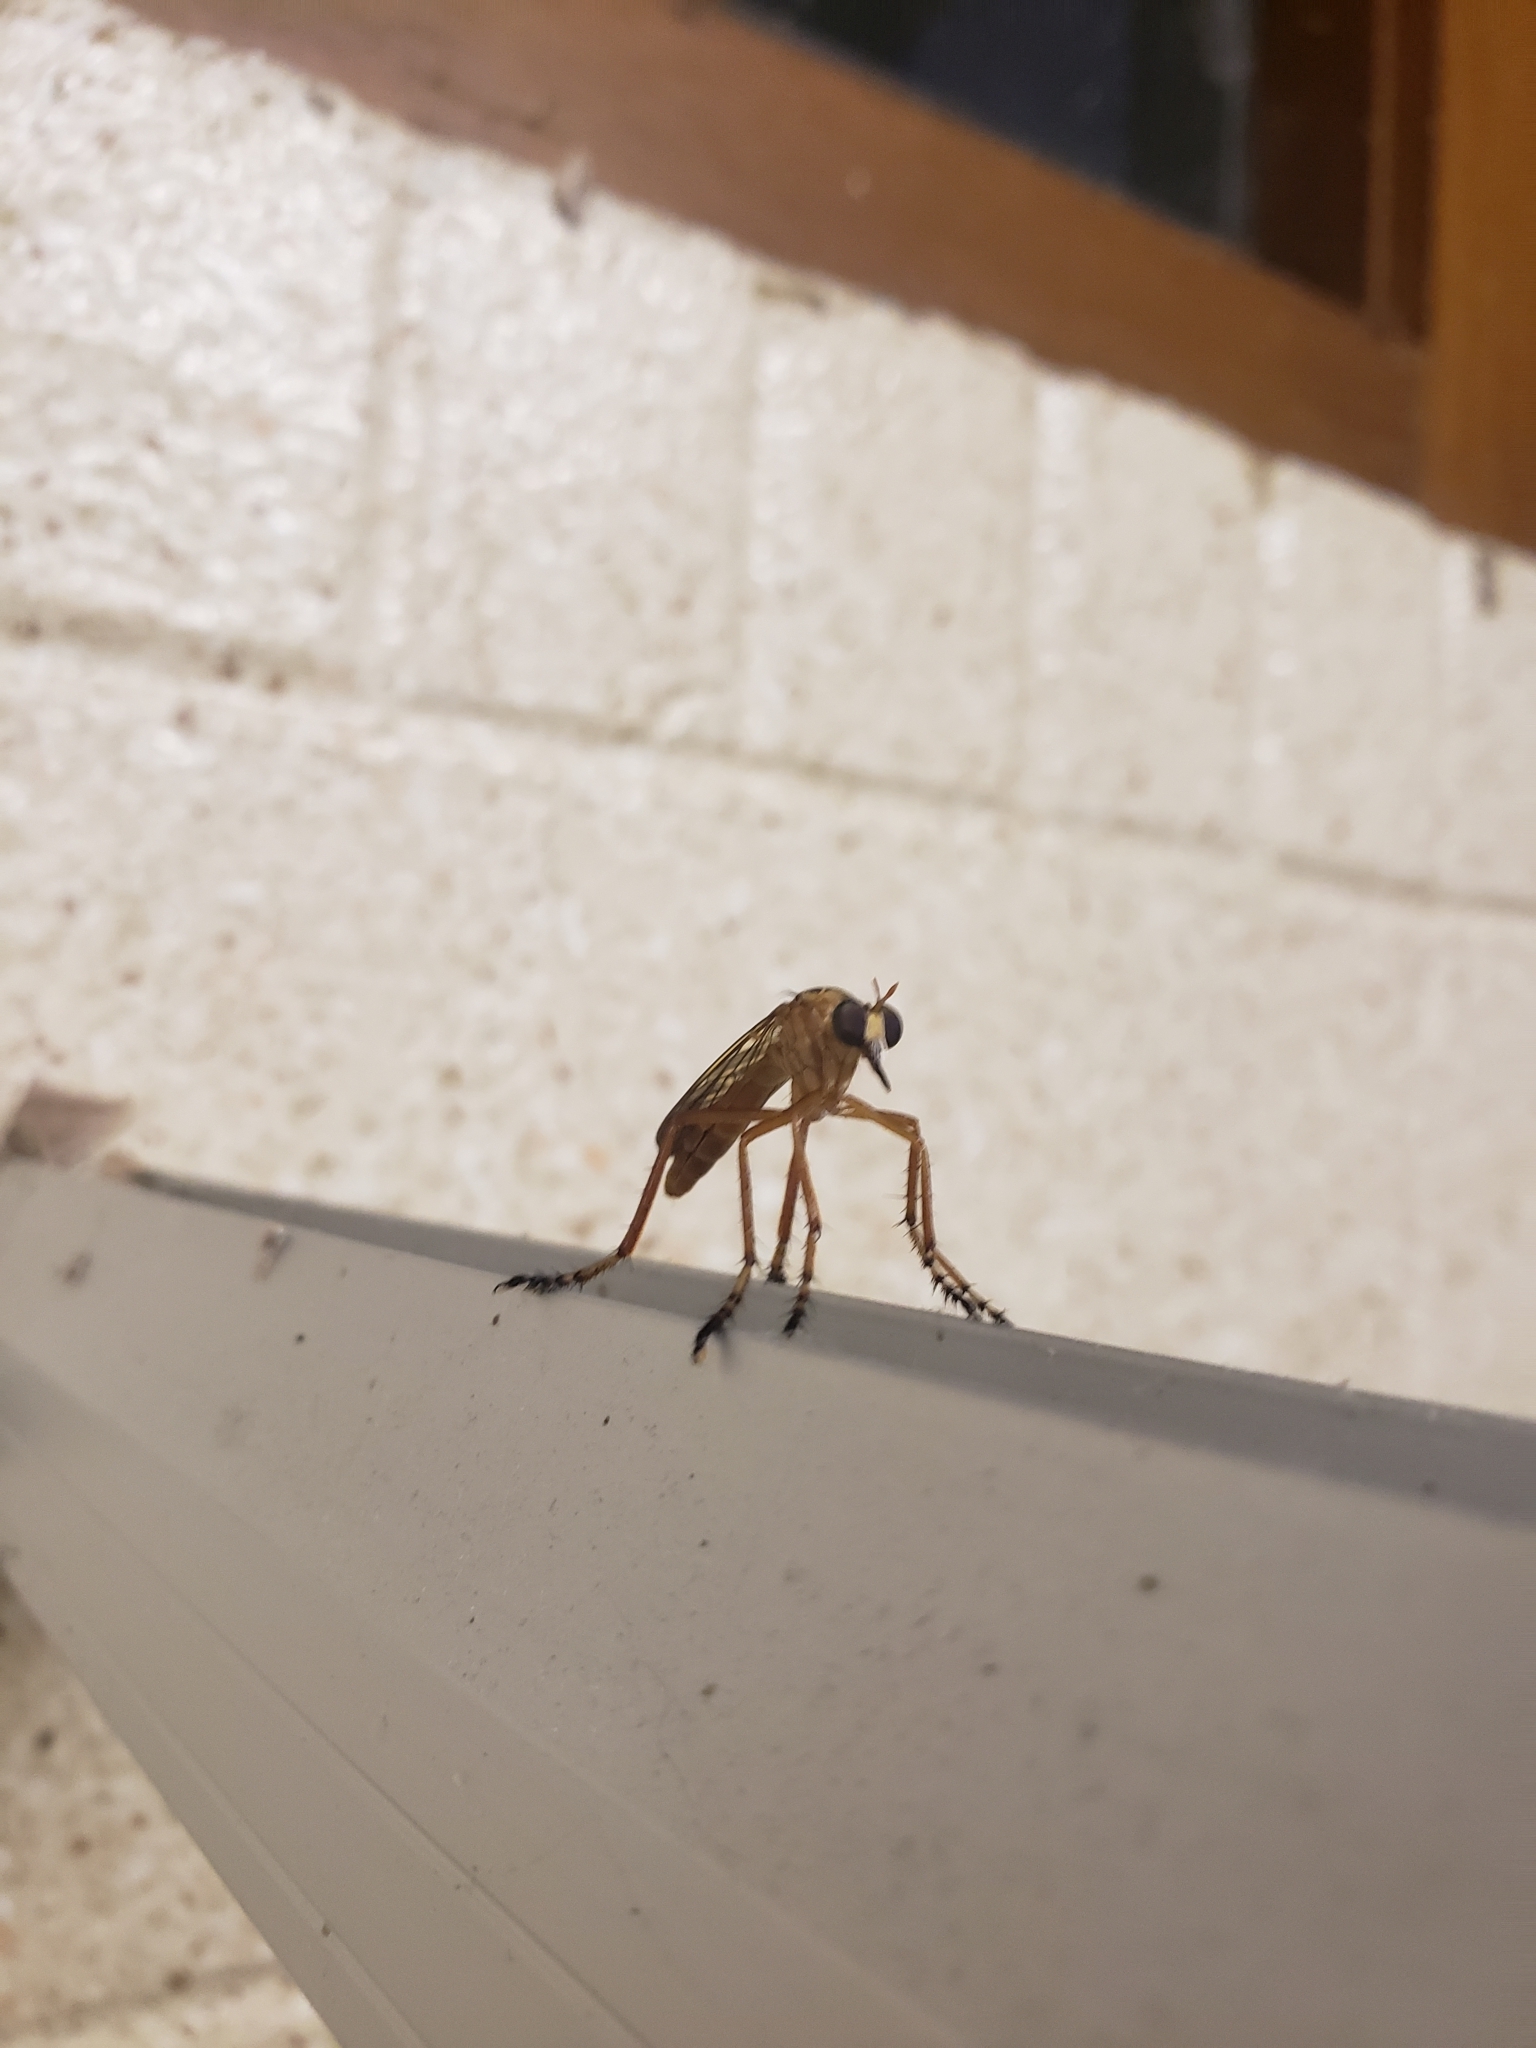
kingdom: Animalia
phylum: Arthropoda
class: Insecta
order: Diptera
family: Asilidae
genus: Diogmites
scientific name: Diogmites neoternatus
